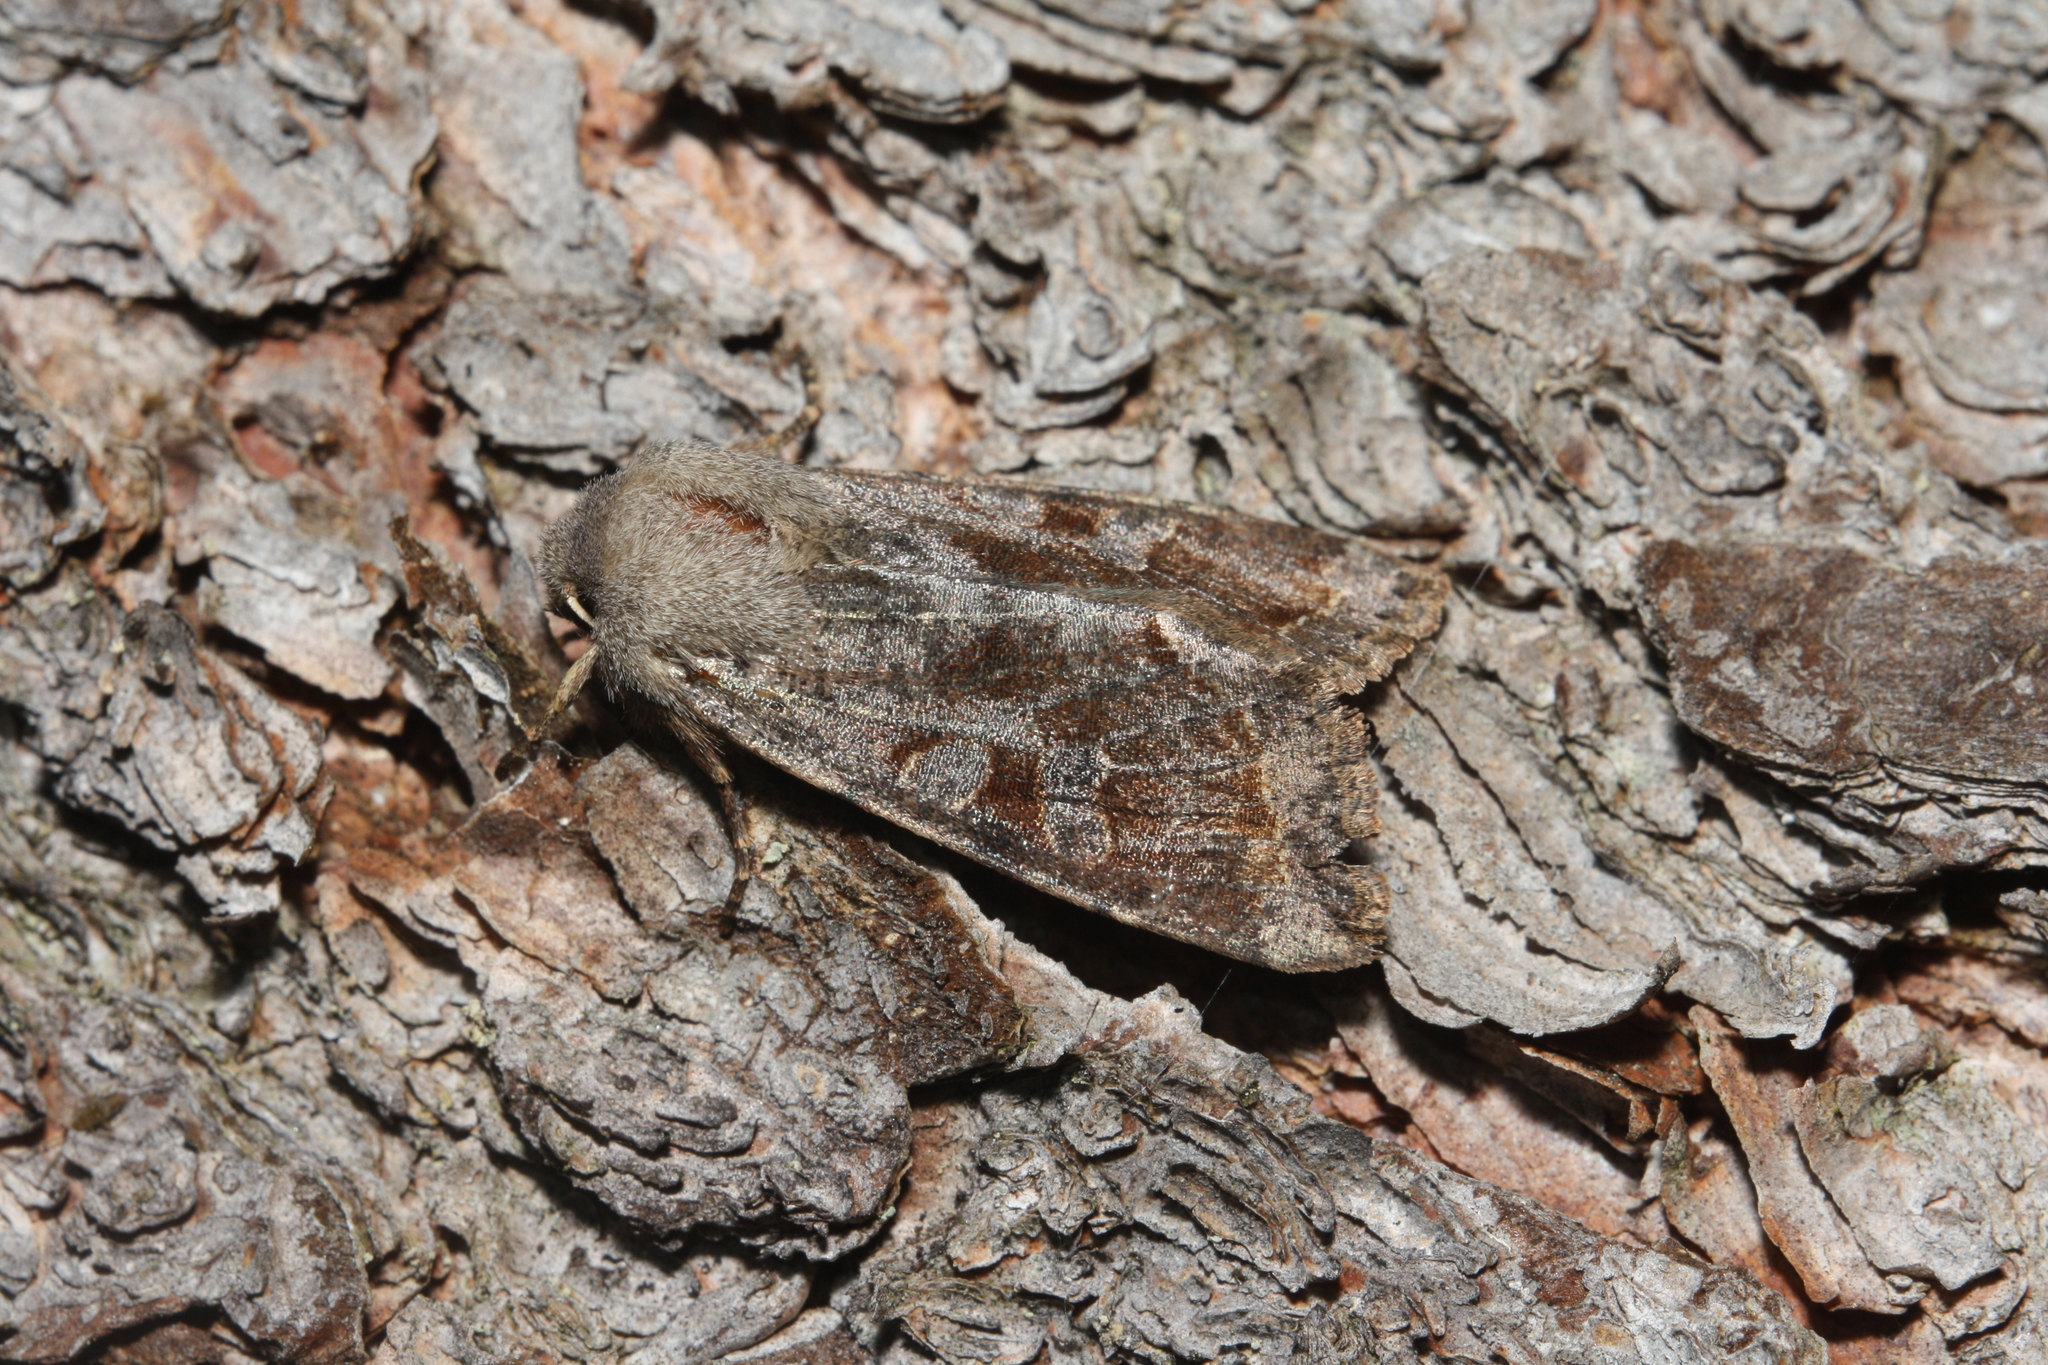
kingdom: Animalia
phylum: Arthropoda
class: Insecta
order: Lepidoptera
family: Noctuidae
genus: Orthosia
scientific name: Orthosia incerta
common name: Clouded drab
